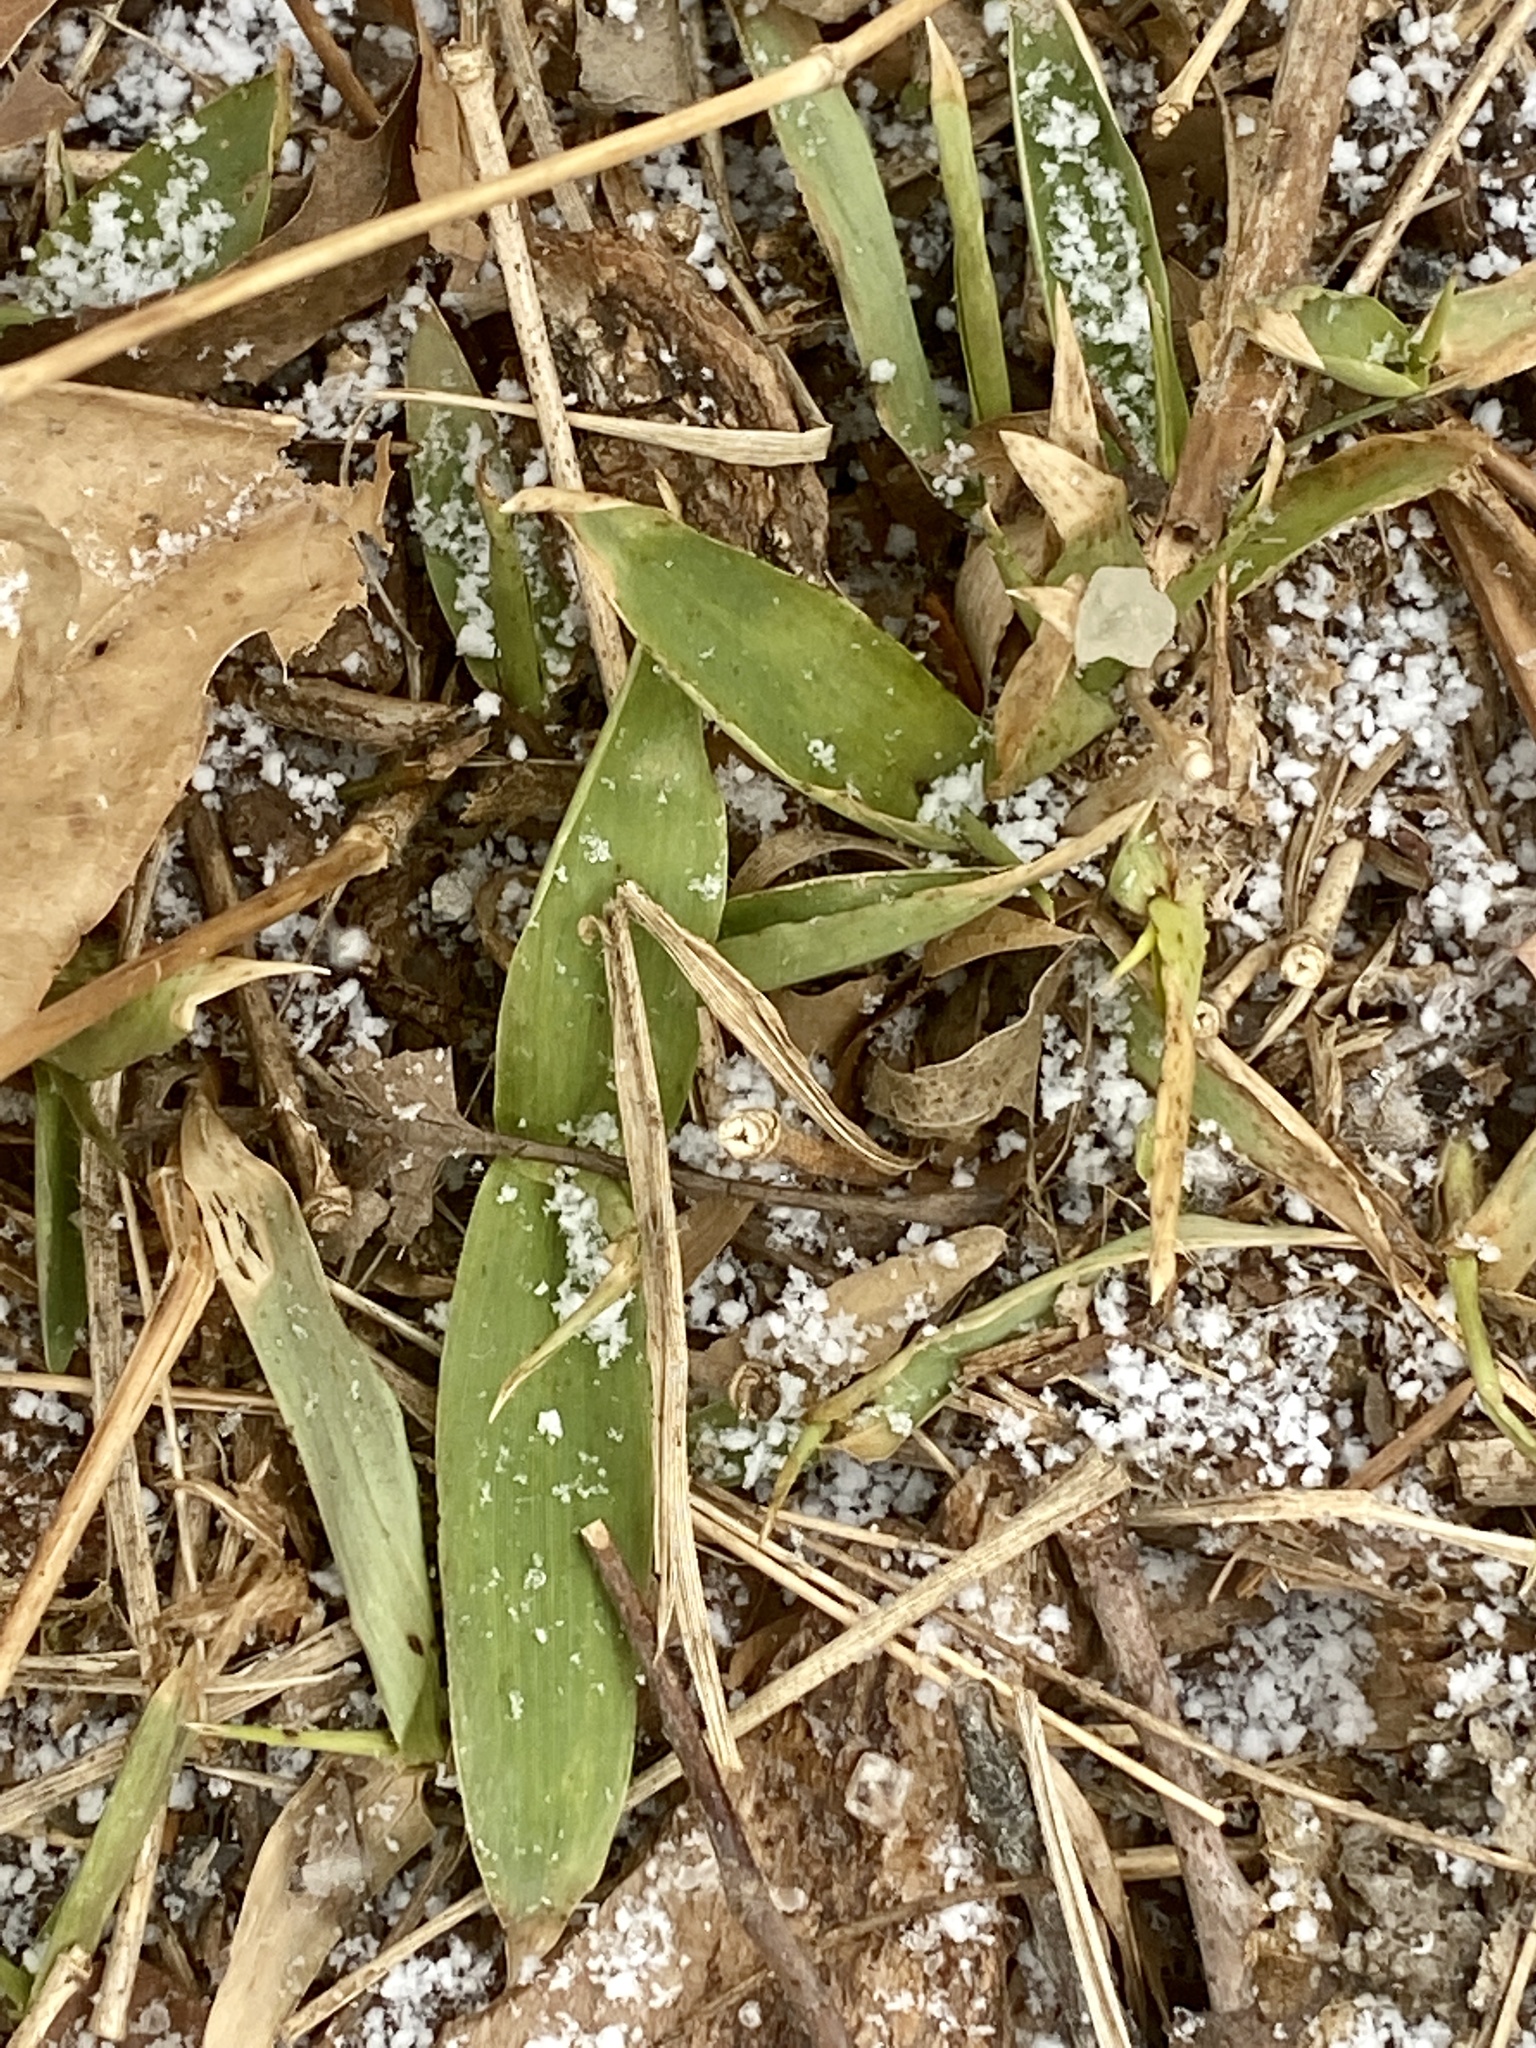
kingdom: Plantae
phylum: Tracheophyta
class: Liliopsida
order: Poales
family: Poaceae
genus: Dichanthelium
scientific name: Dichanthelium clandestinum
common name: Deer-tongue grass
